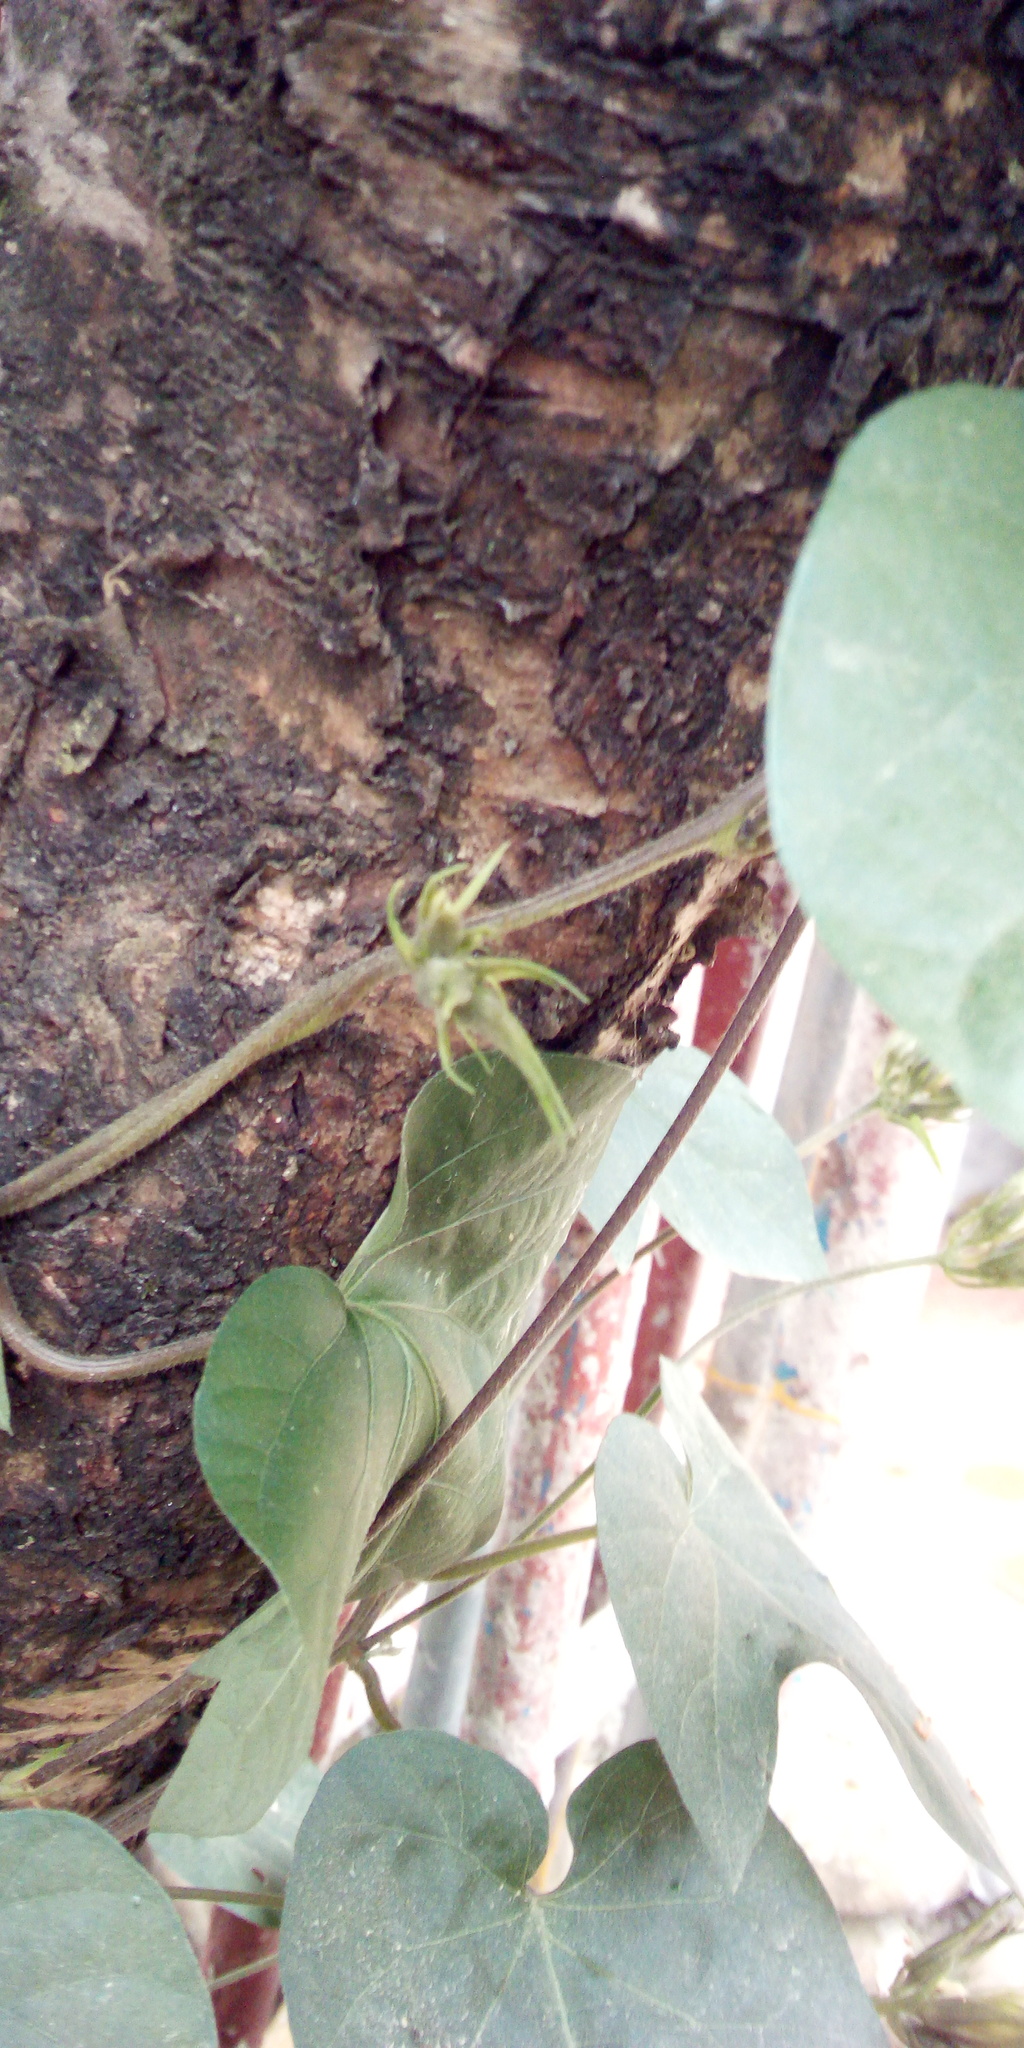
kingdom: Plantae
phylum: Tracheophyta
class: Magnoliopsida
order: Solanales
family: Convolvulaceae
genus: Ipomoea
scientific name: Ipomoea indica
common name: Blue dawnflower
